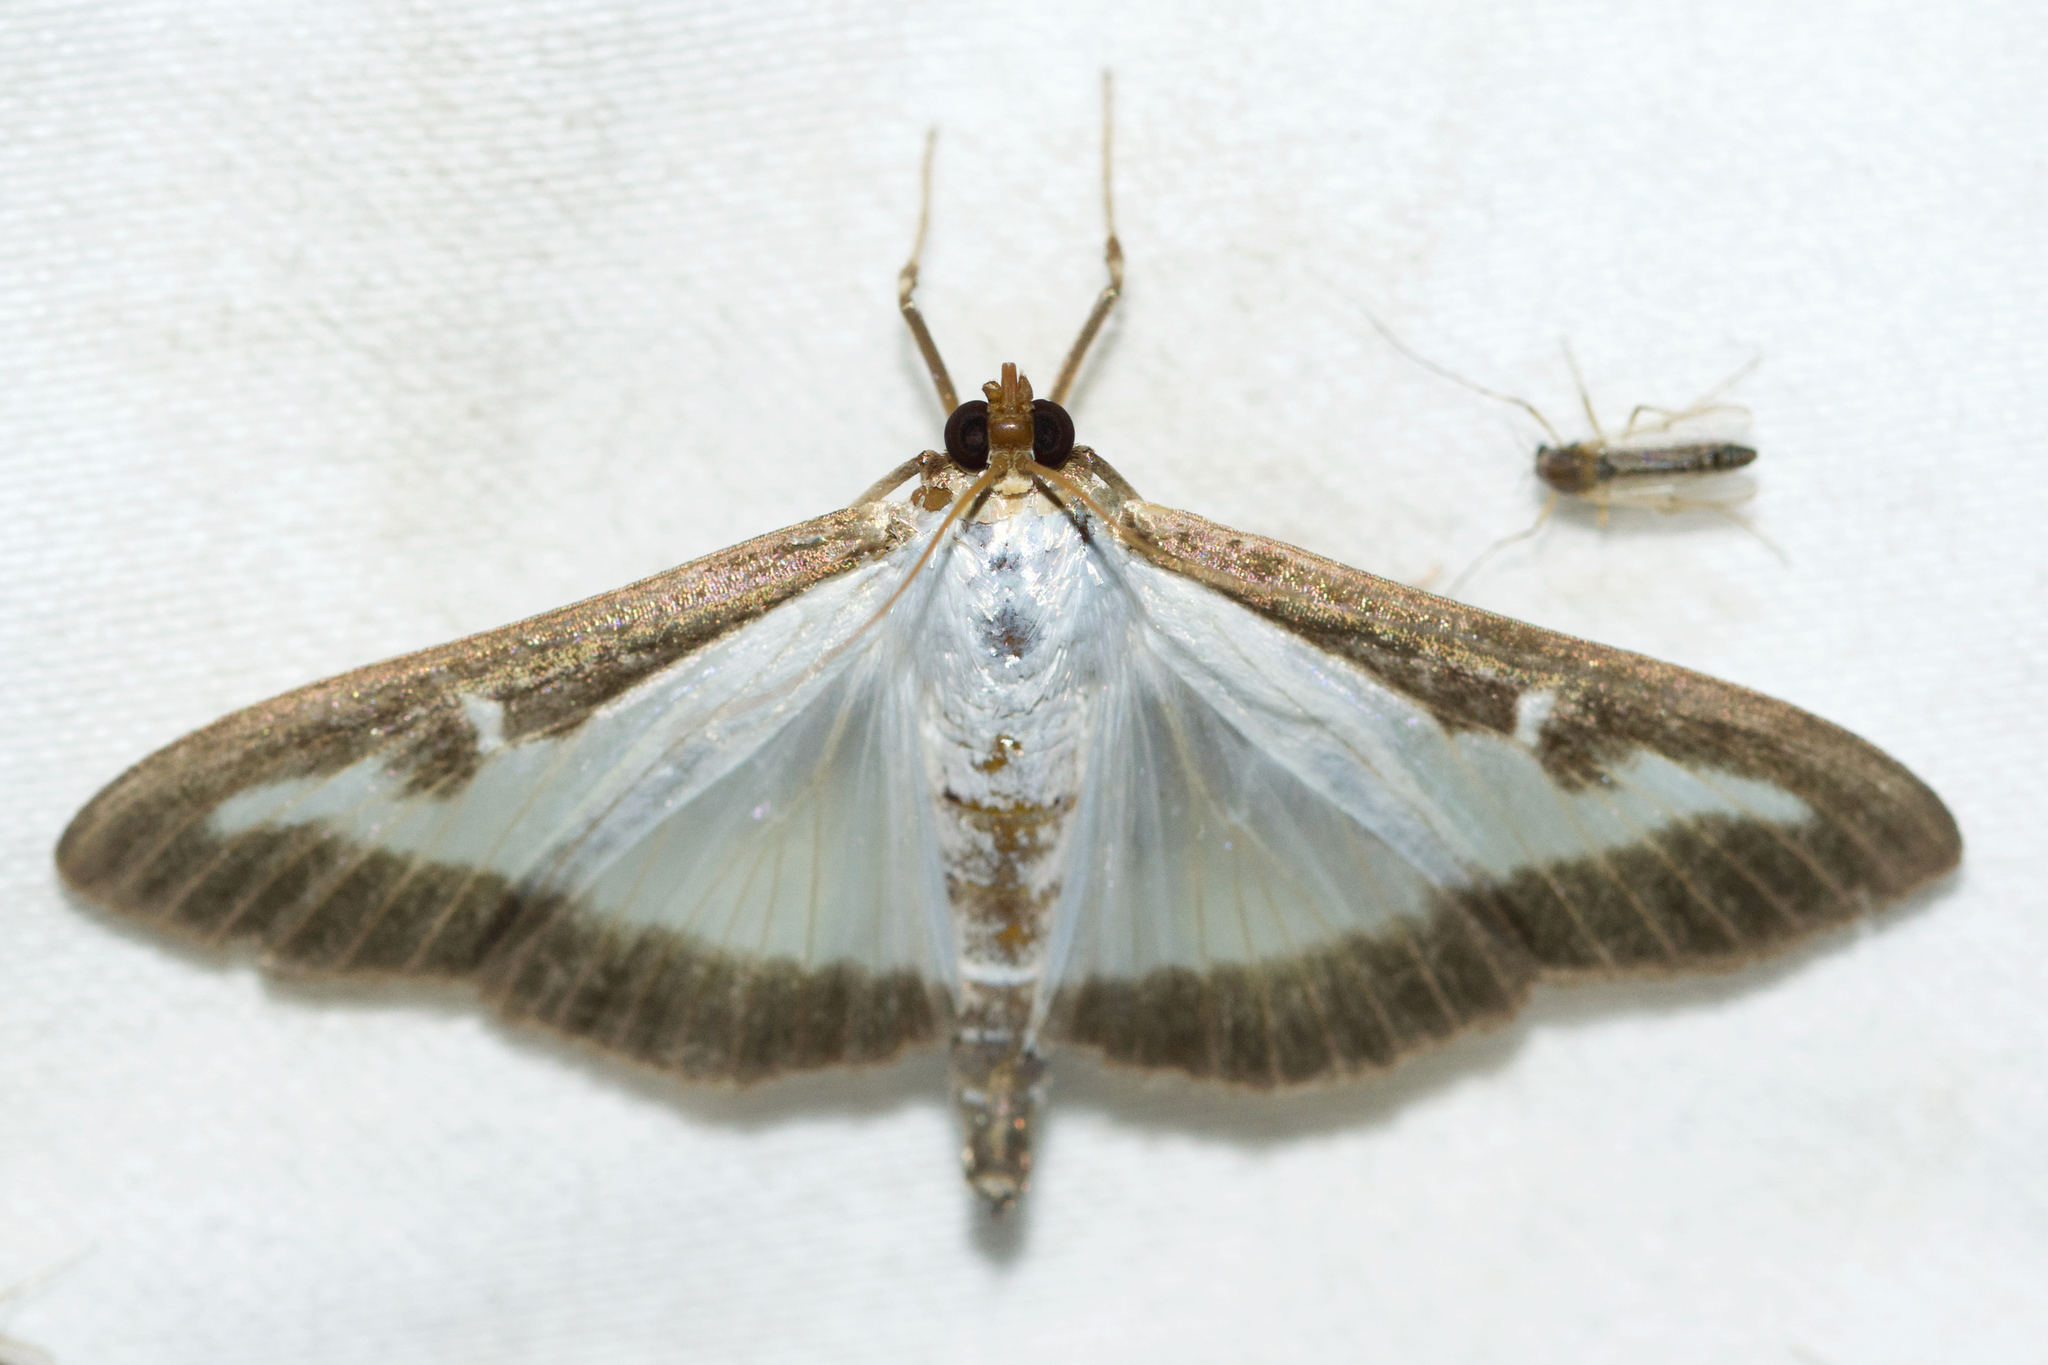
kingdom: Animalia
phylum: Arthropoda
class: Insecta
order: Lepidoptera
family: Crambidae
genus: Cydalima
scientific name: Cydalima perspectalis
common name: Box tree moth
